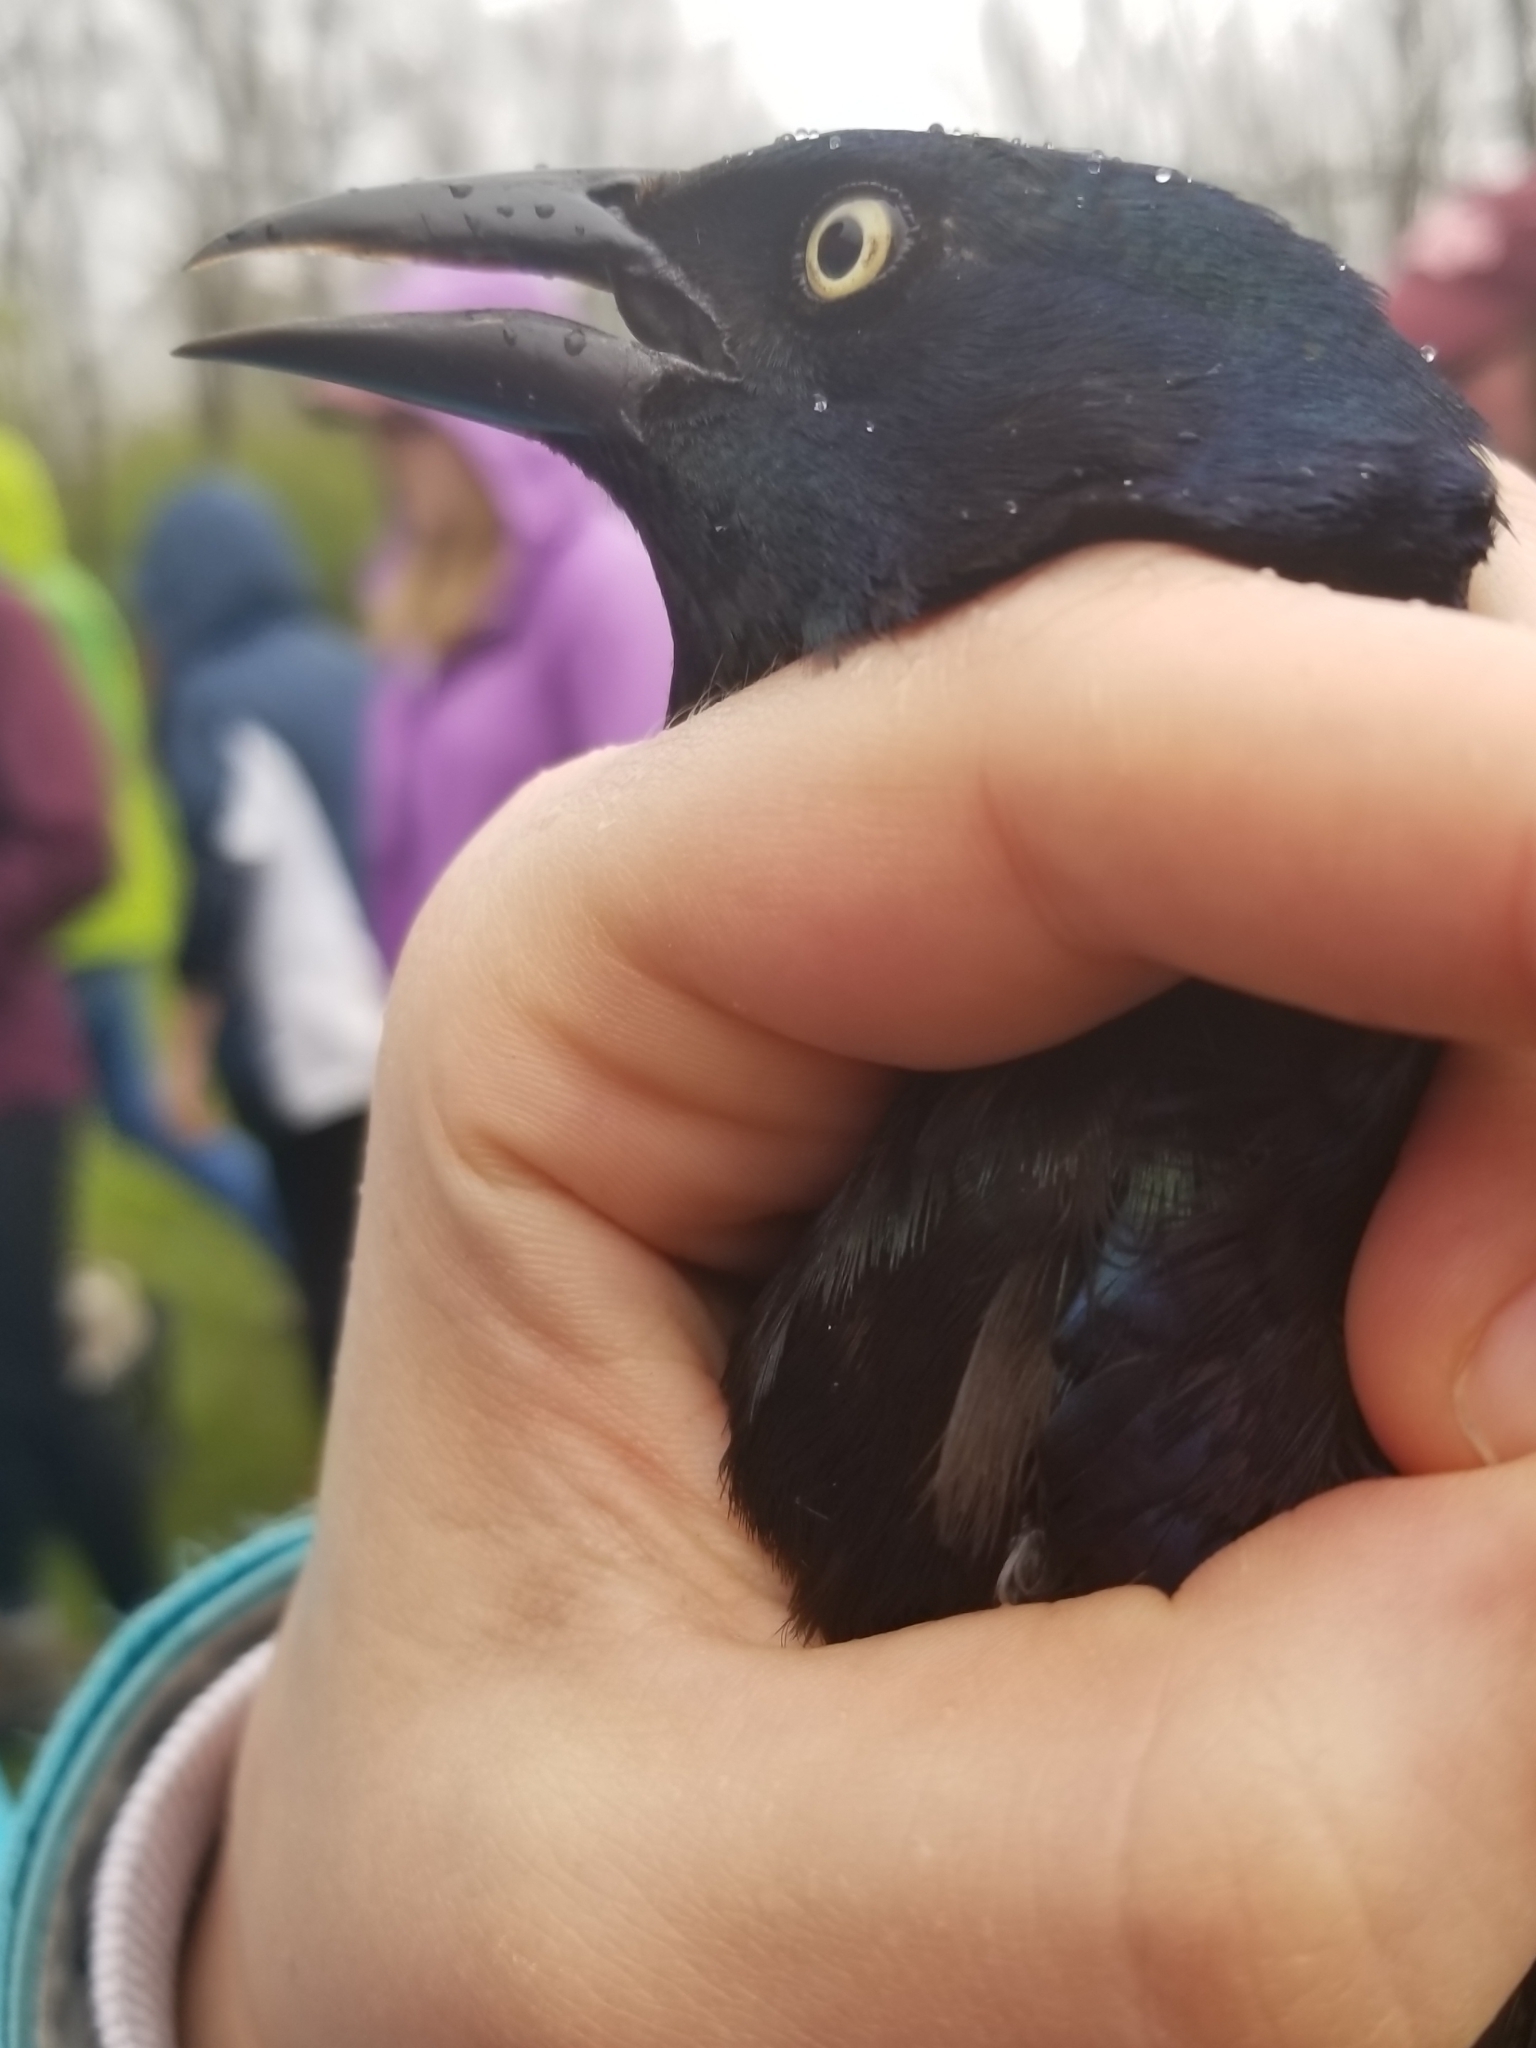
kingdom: Animalia
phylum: Chordata
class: Aves
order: Passeriformes
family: Icteridae
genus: Quiscalus
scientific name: Quiscalus quiscula
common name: Common grackle
